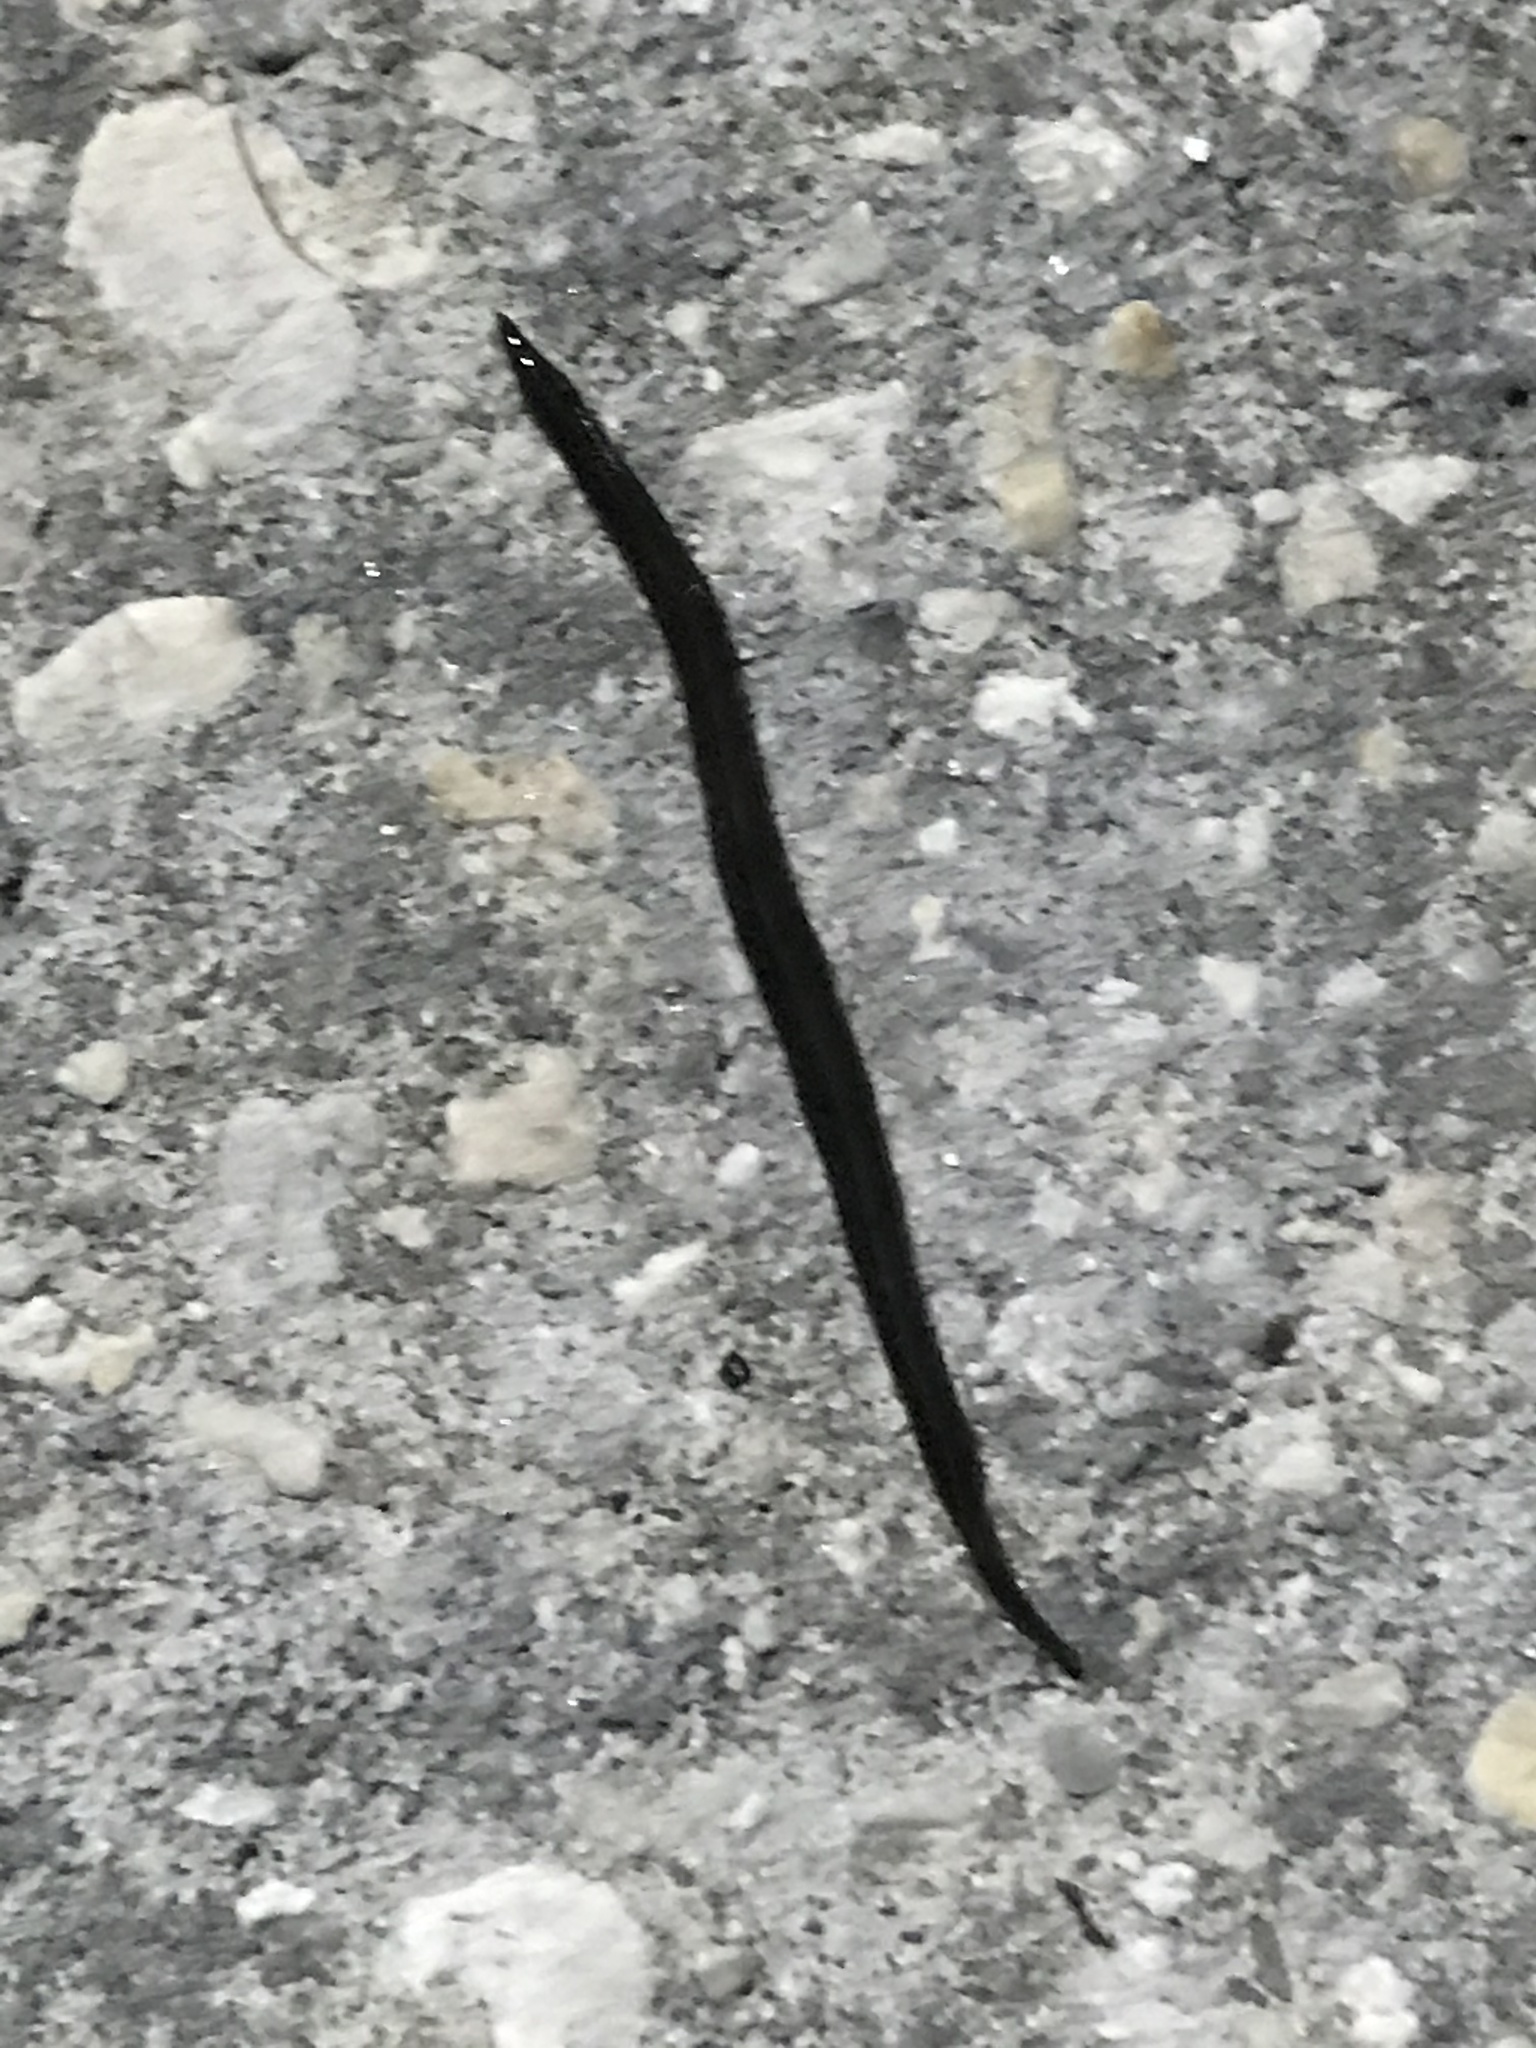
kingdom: Animalia
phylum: Platyhelminthes
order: Tricladida
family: Geoplanidae
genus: Platydemus
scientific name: Platydemus manokwari
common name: New guinea flatworm
